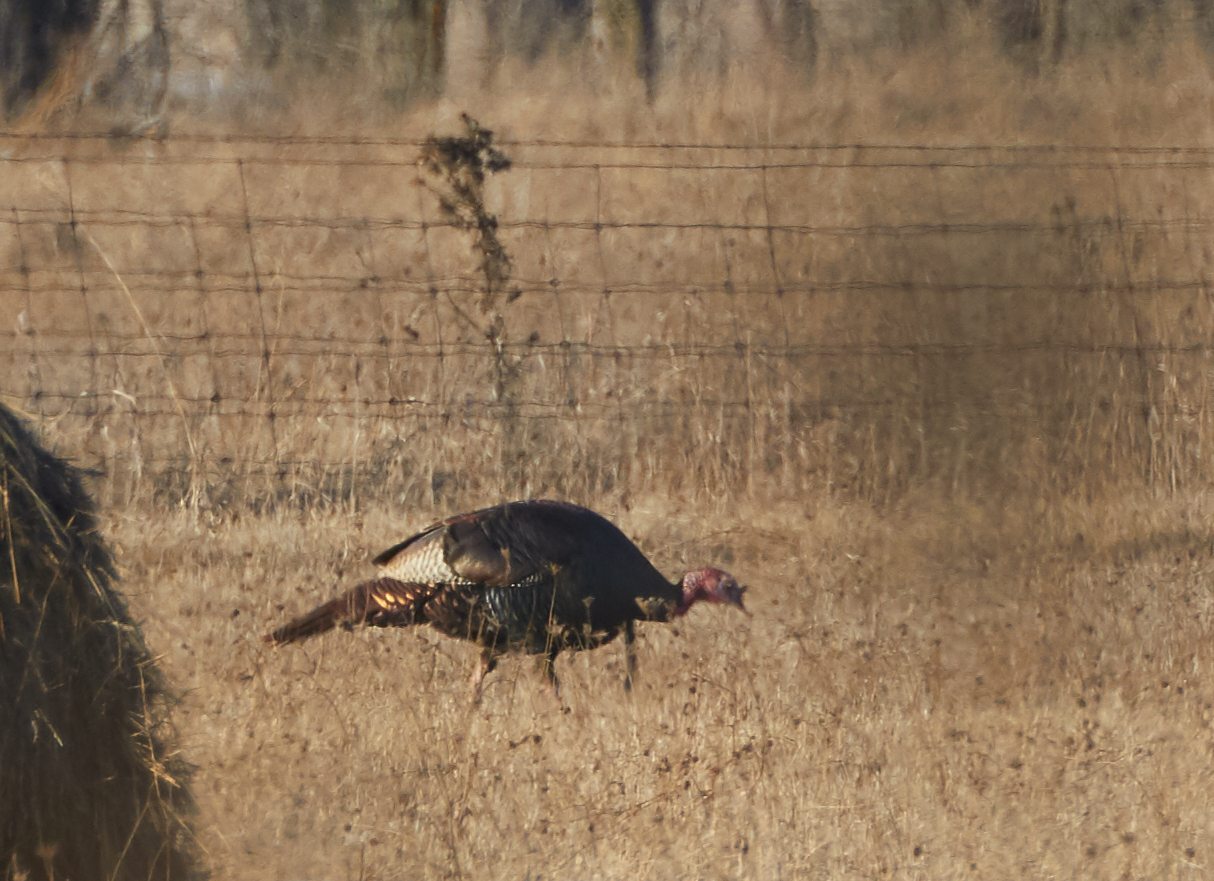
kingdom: Animalia
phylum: Chordata
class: Aves
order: Galliformes
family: Phasianidae
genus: Meleagris
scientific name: Meleagris gallopavo
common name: Wild turkey
